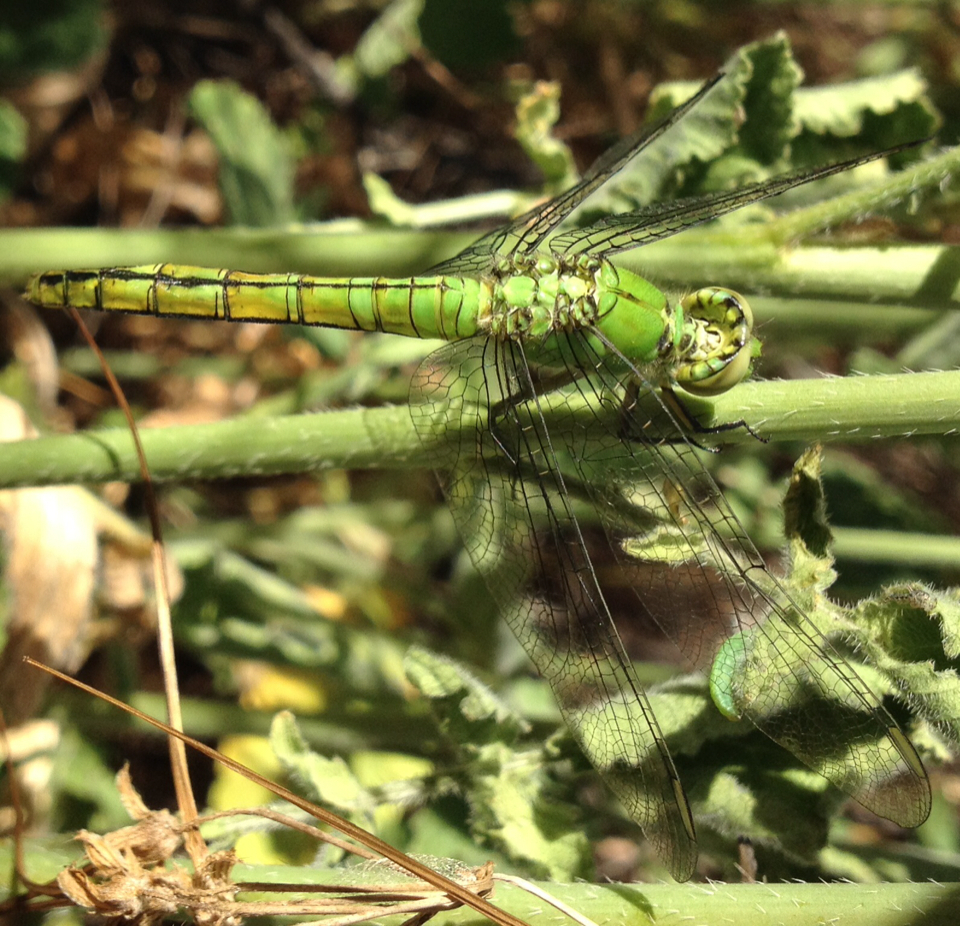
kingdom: Animalia
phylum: Arthropoda
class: Insecta
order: Odonata
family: Libellulidae
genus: Erythemis
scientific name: Erythemis collocata
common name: Western pondhawk
